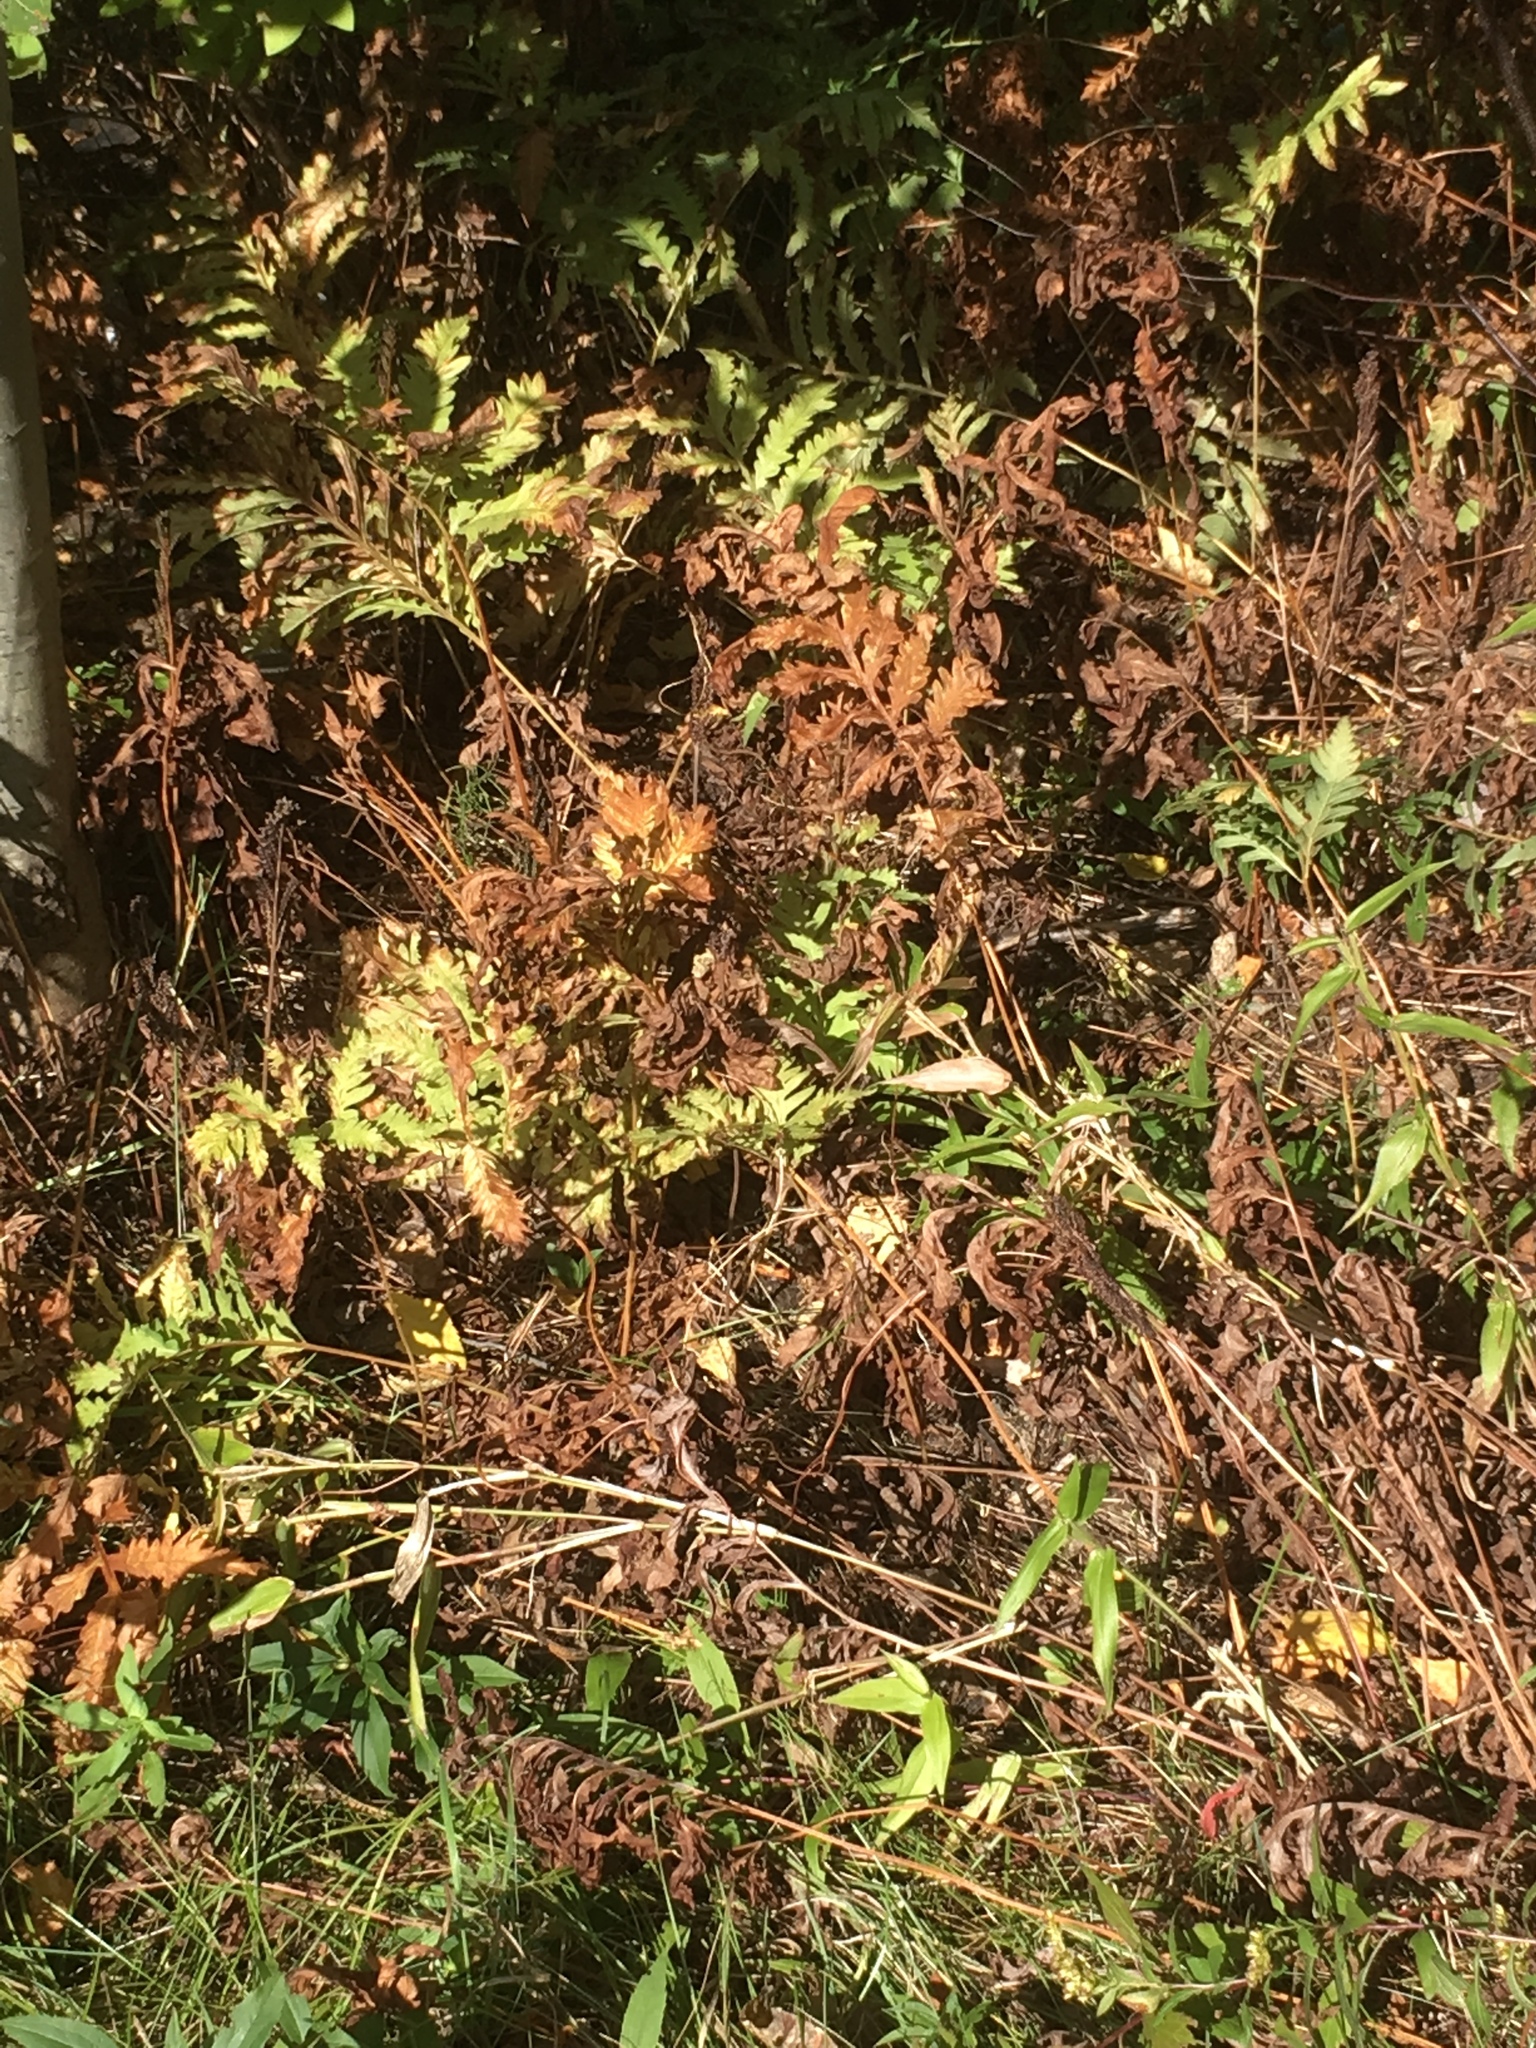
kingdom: Plantae
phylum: Tracheophyta
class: Polypodiopsida
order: Polypodiales
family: Onocleaceae
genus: Onoclea
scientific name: Onoclea sensibilis
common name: Sensitive fern
